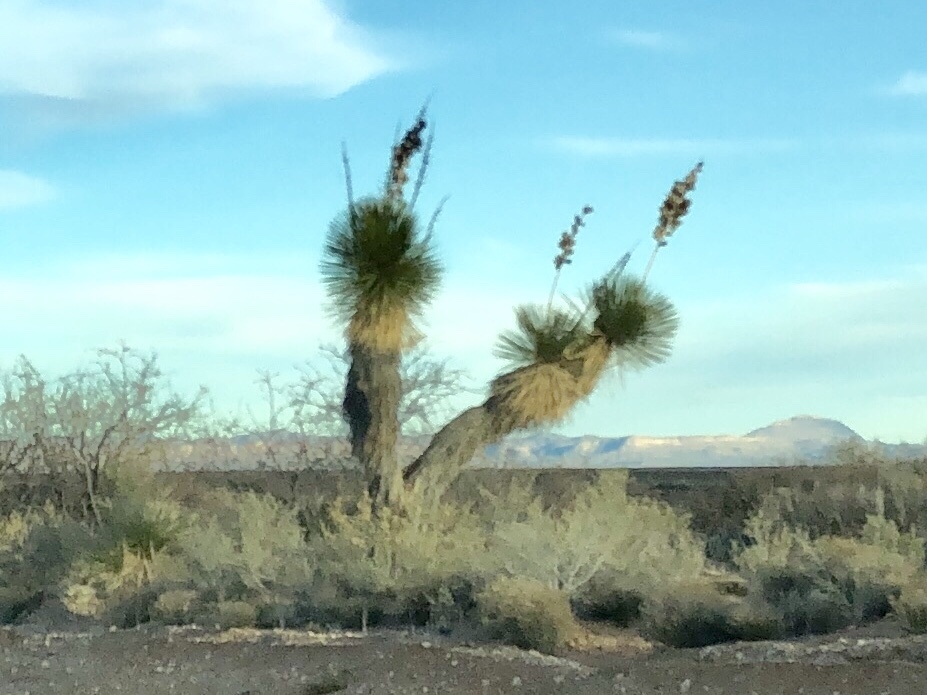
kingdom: Plantae
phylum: Tracheophyta
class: Liliopsida
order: Asparagales
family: Asparagaceae
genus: Yucca
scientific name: Yucca elata
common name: Palmella
